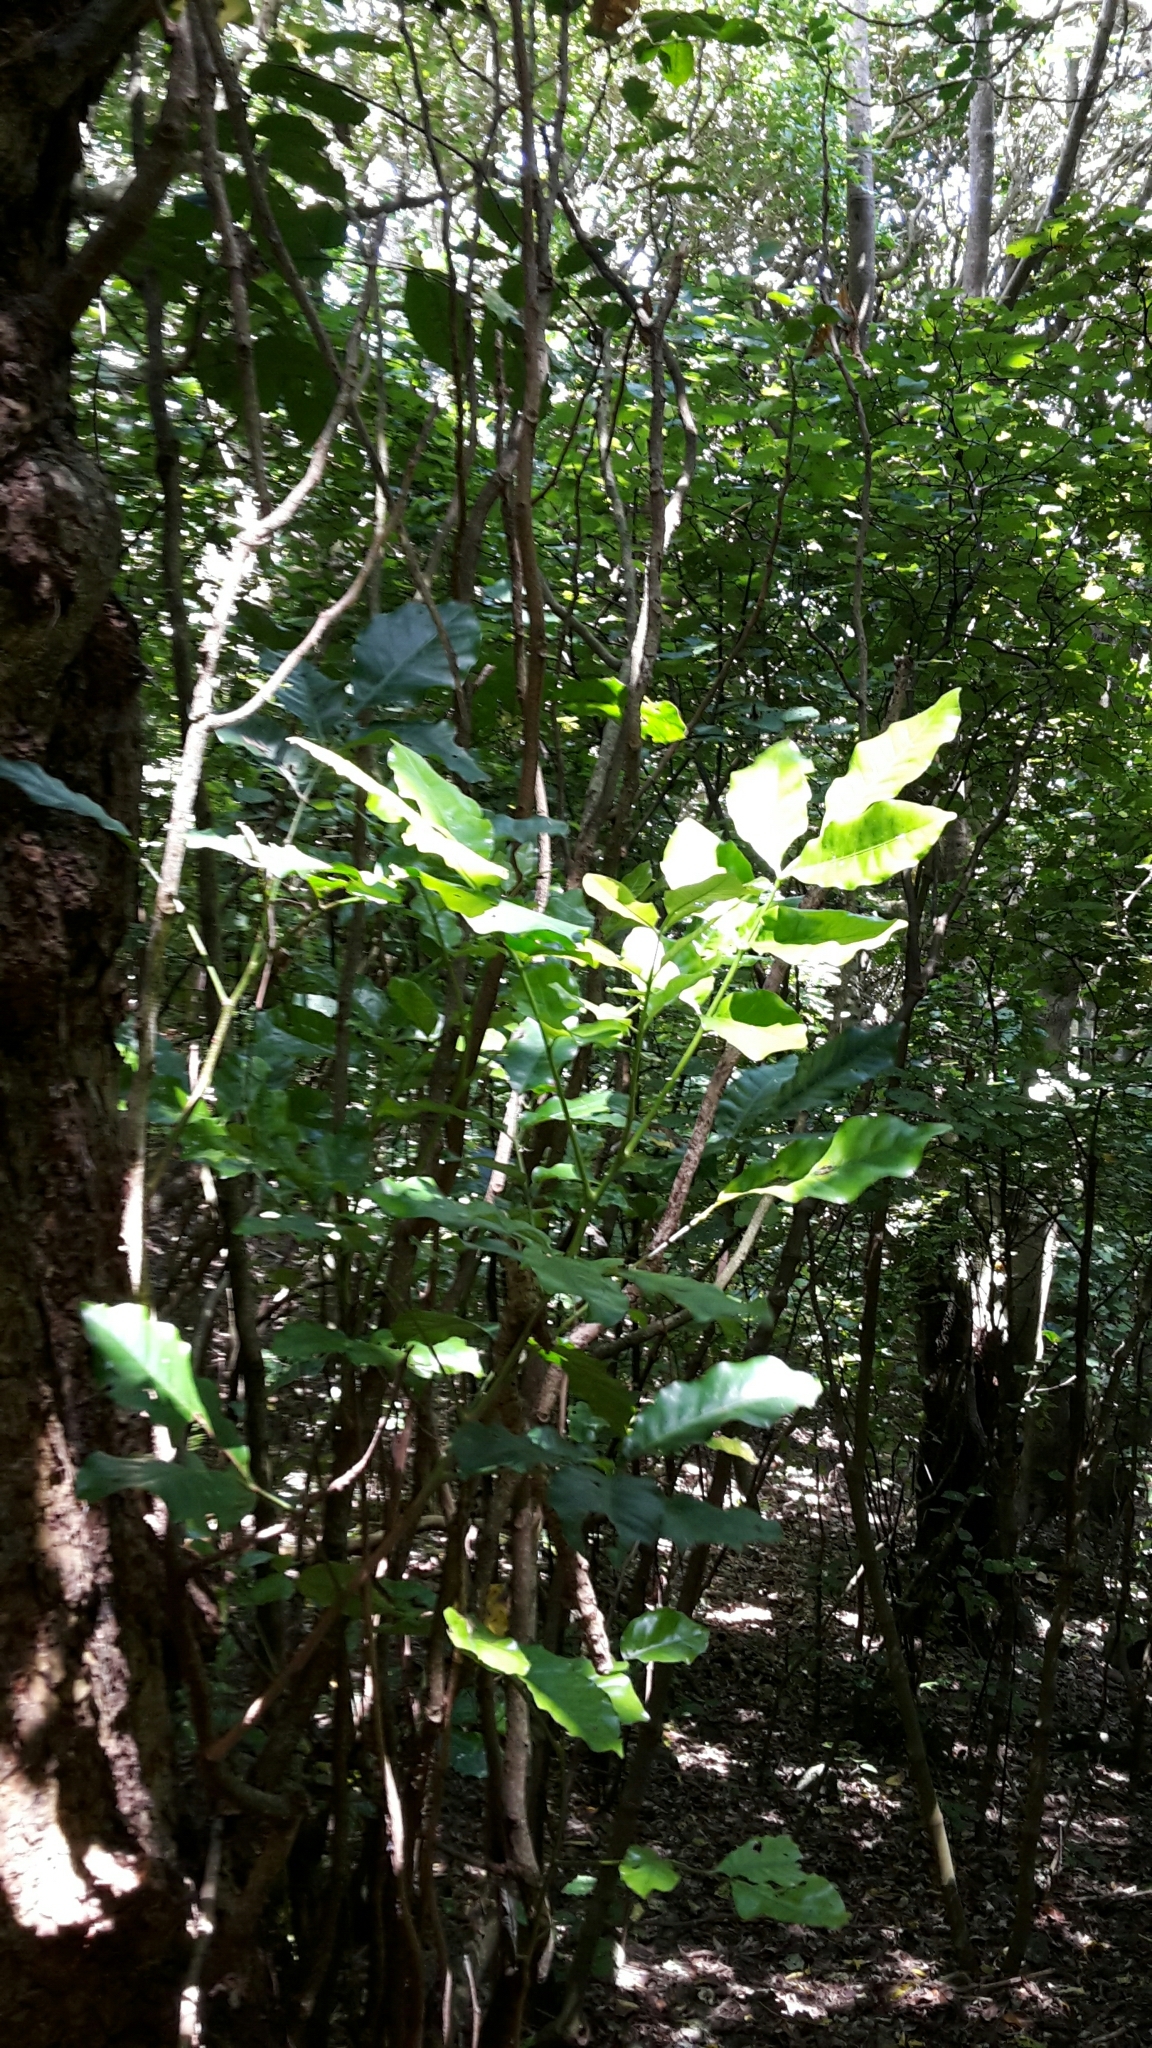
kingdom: Plantae
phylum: Tracheophyta
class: Magnoliopsida
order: Sapindales
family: Meliaceae
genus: Didymocheton
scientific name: Didymocheton spectabilis
